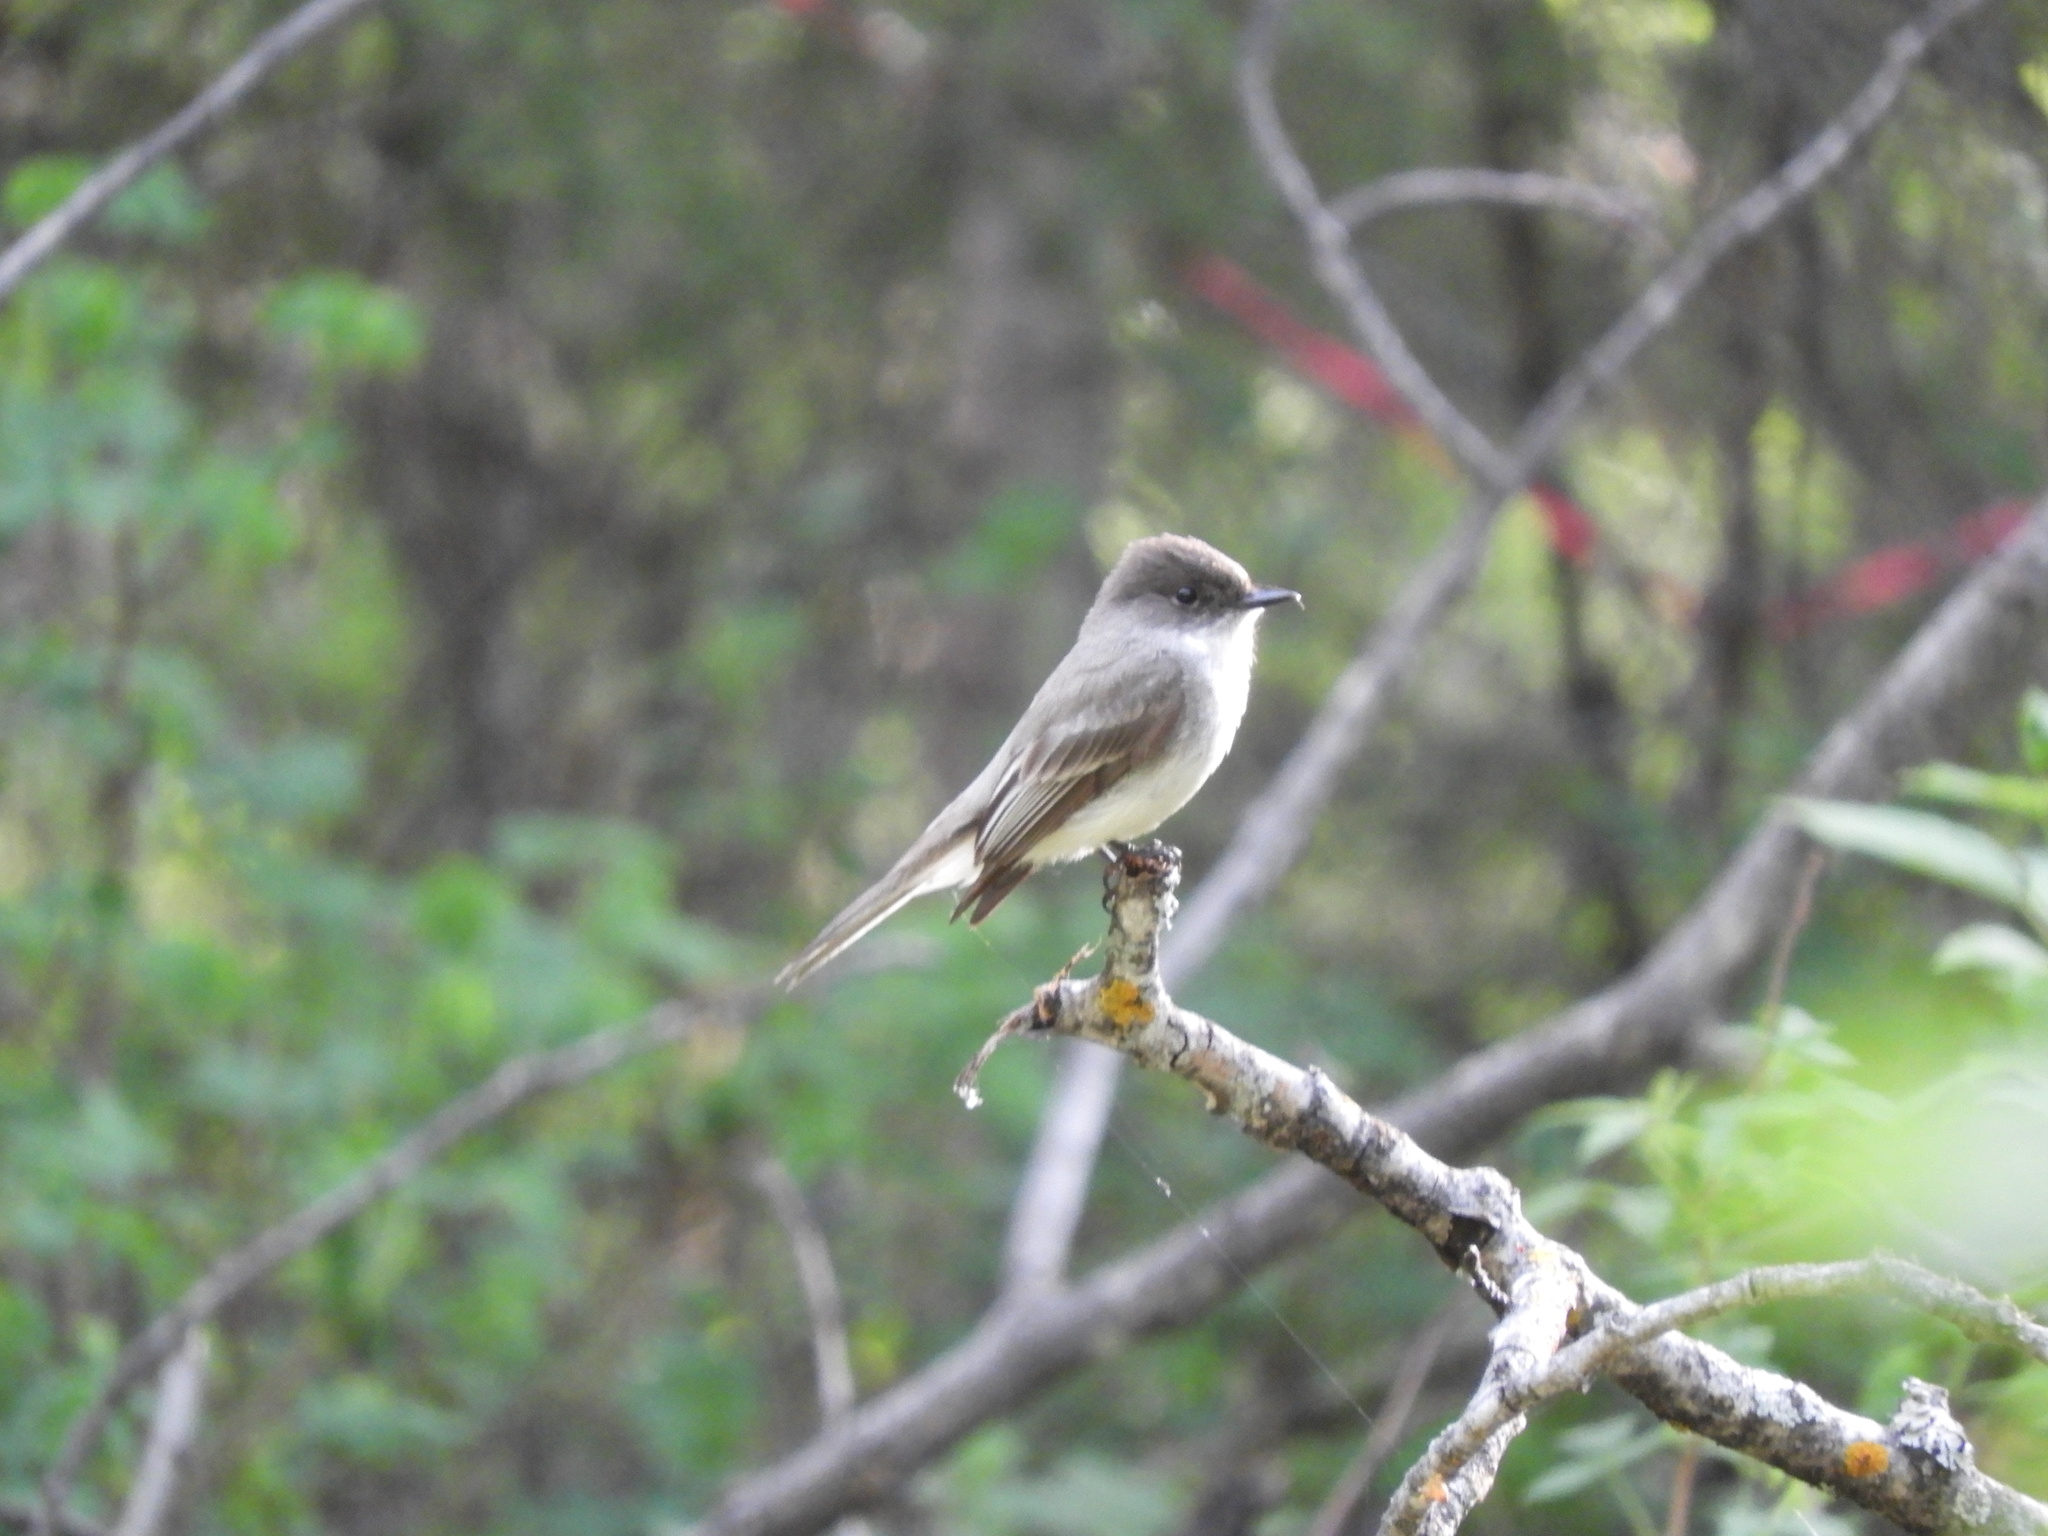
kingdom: Animalia
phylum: Chordata
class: Aves
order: Passeriformes
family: Tyrannidae
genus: Sayornis
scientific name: Sayornis phoebe
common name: Eastern phoebe
